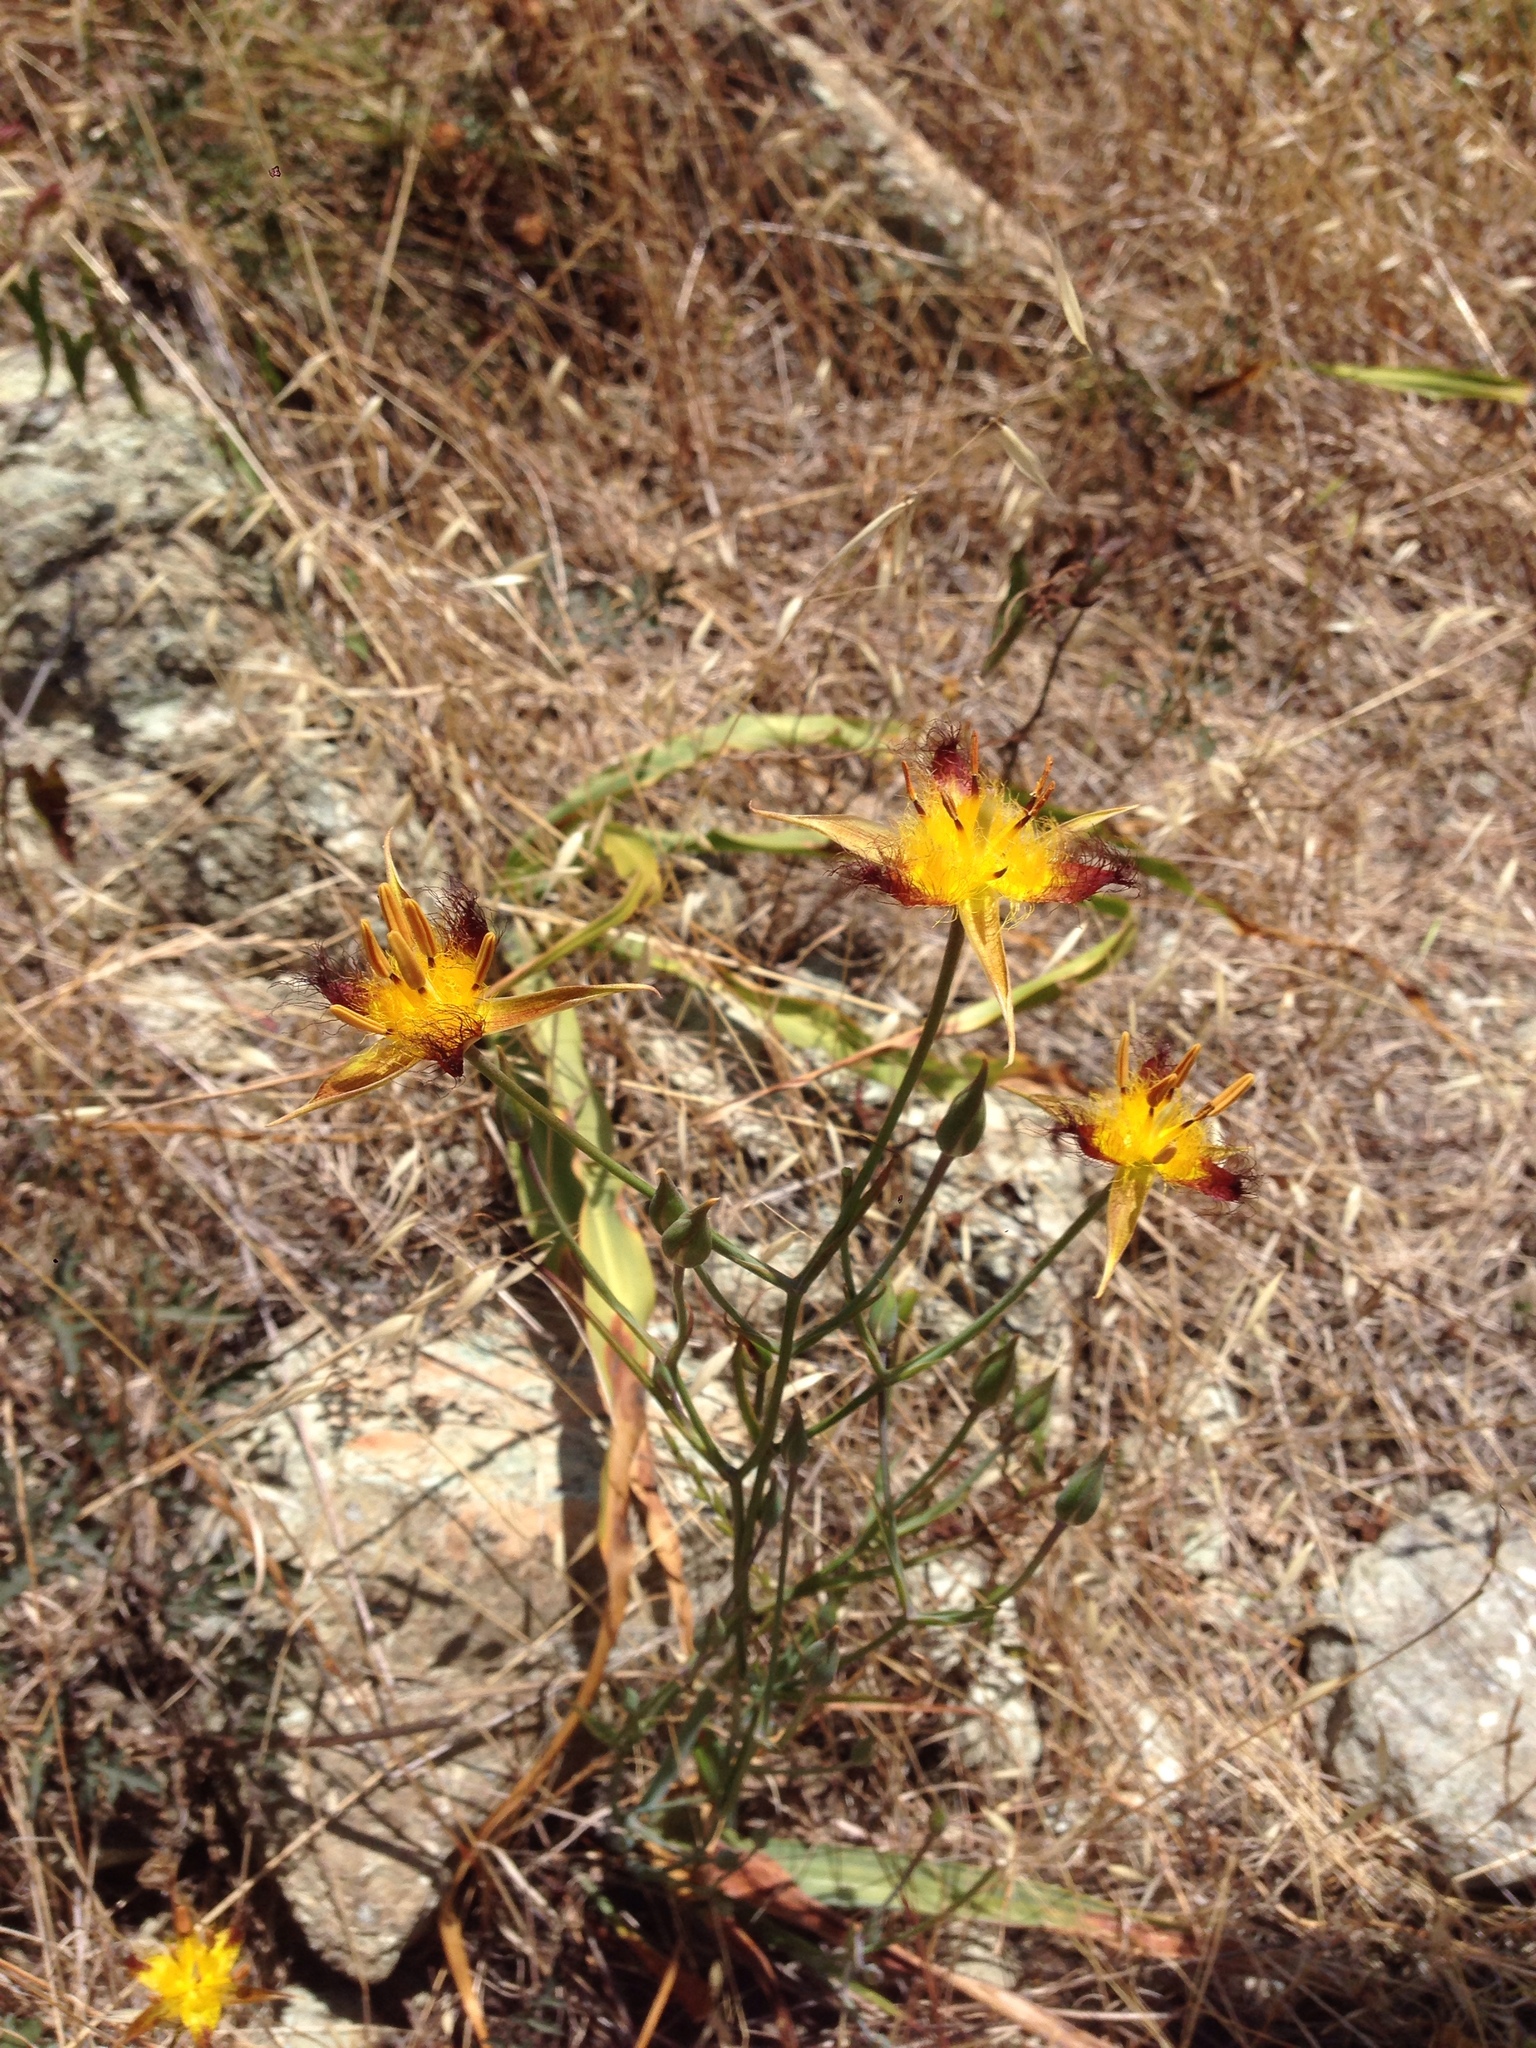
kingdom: Plantae
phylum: Tracheophyta
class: Liliopsida
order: Liliales
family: Liliaceae
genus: Calochortus
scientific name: Calochortus obispoensis
